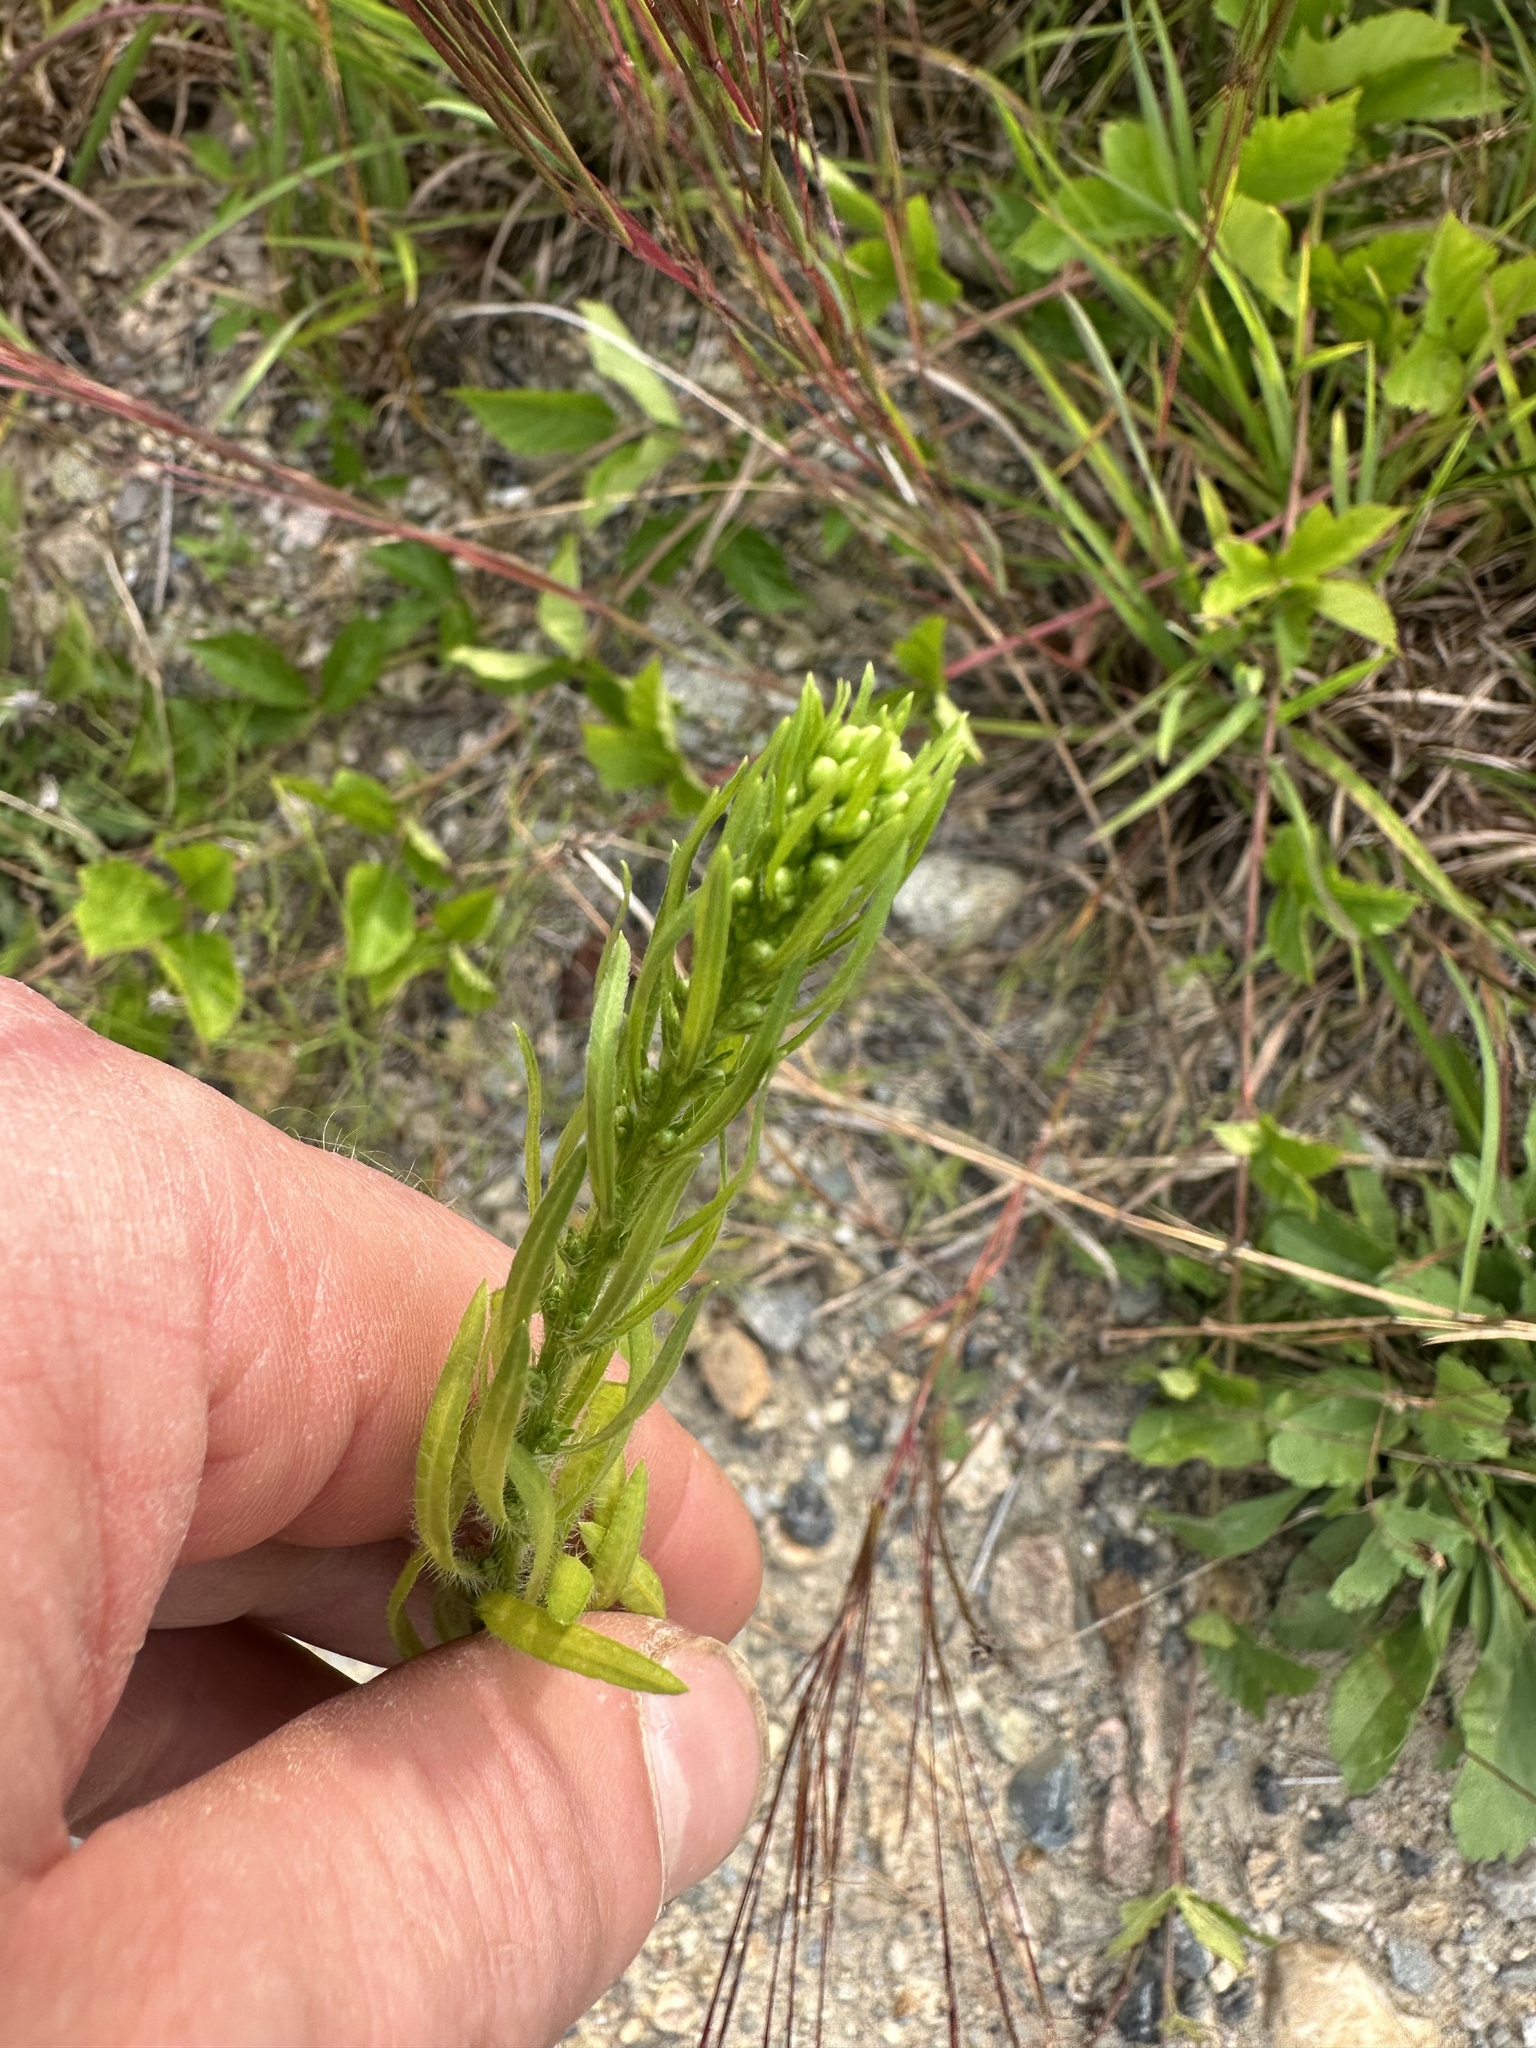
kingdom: Plantae
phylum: Tracheophyta
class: Magnoliopsida
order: Asterales
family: Asteraceae
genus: Erigeron
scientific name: Erigeron canadensis
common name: Canadian fleabane
